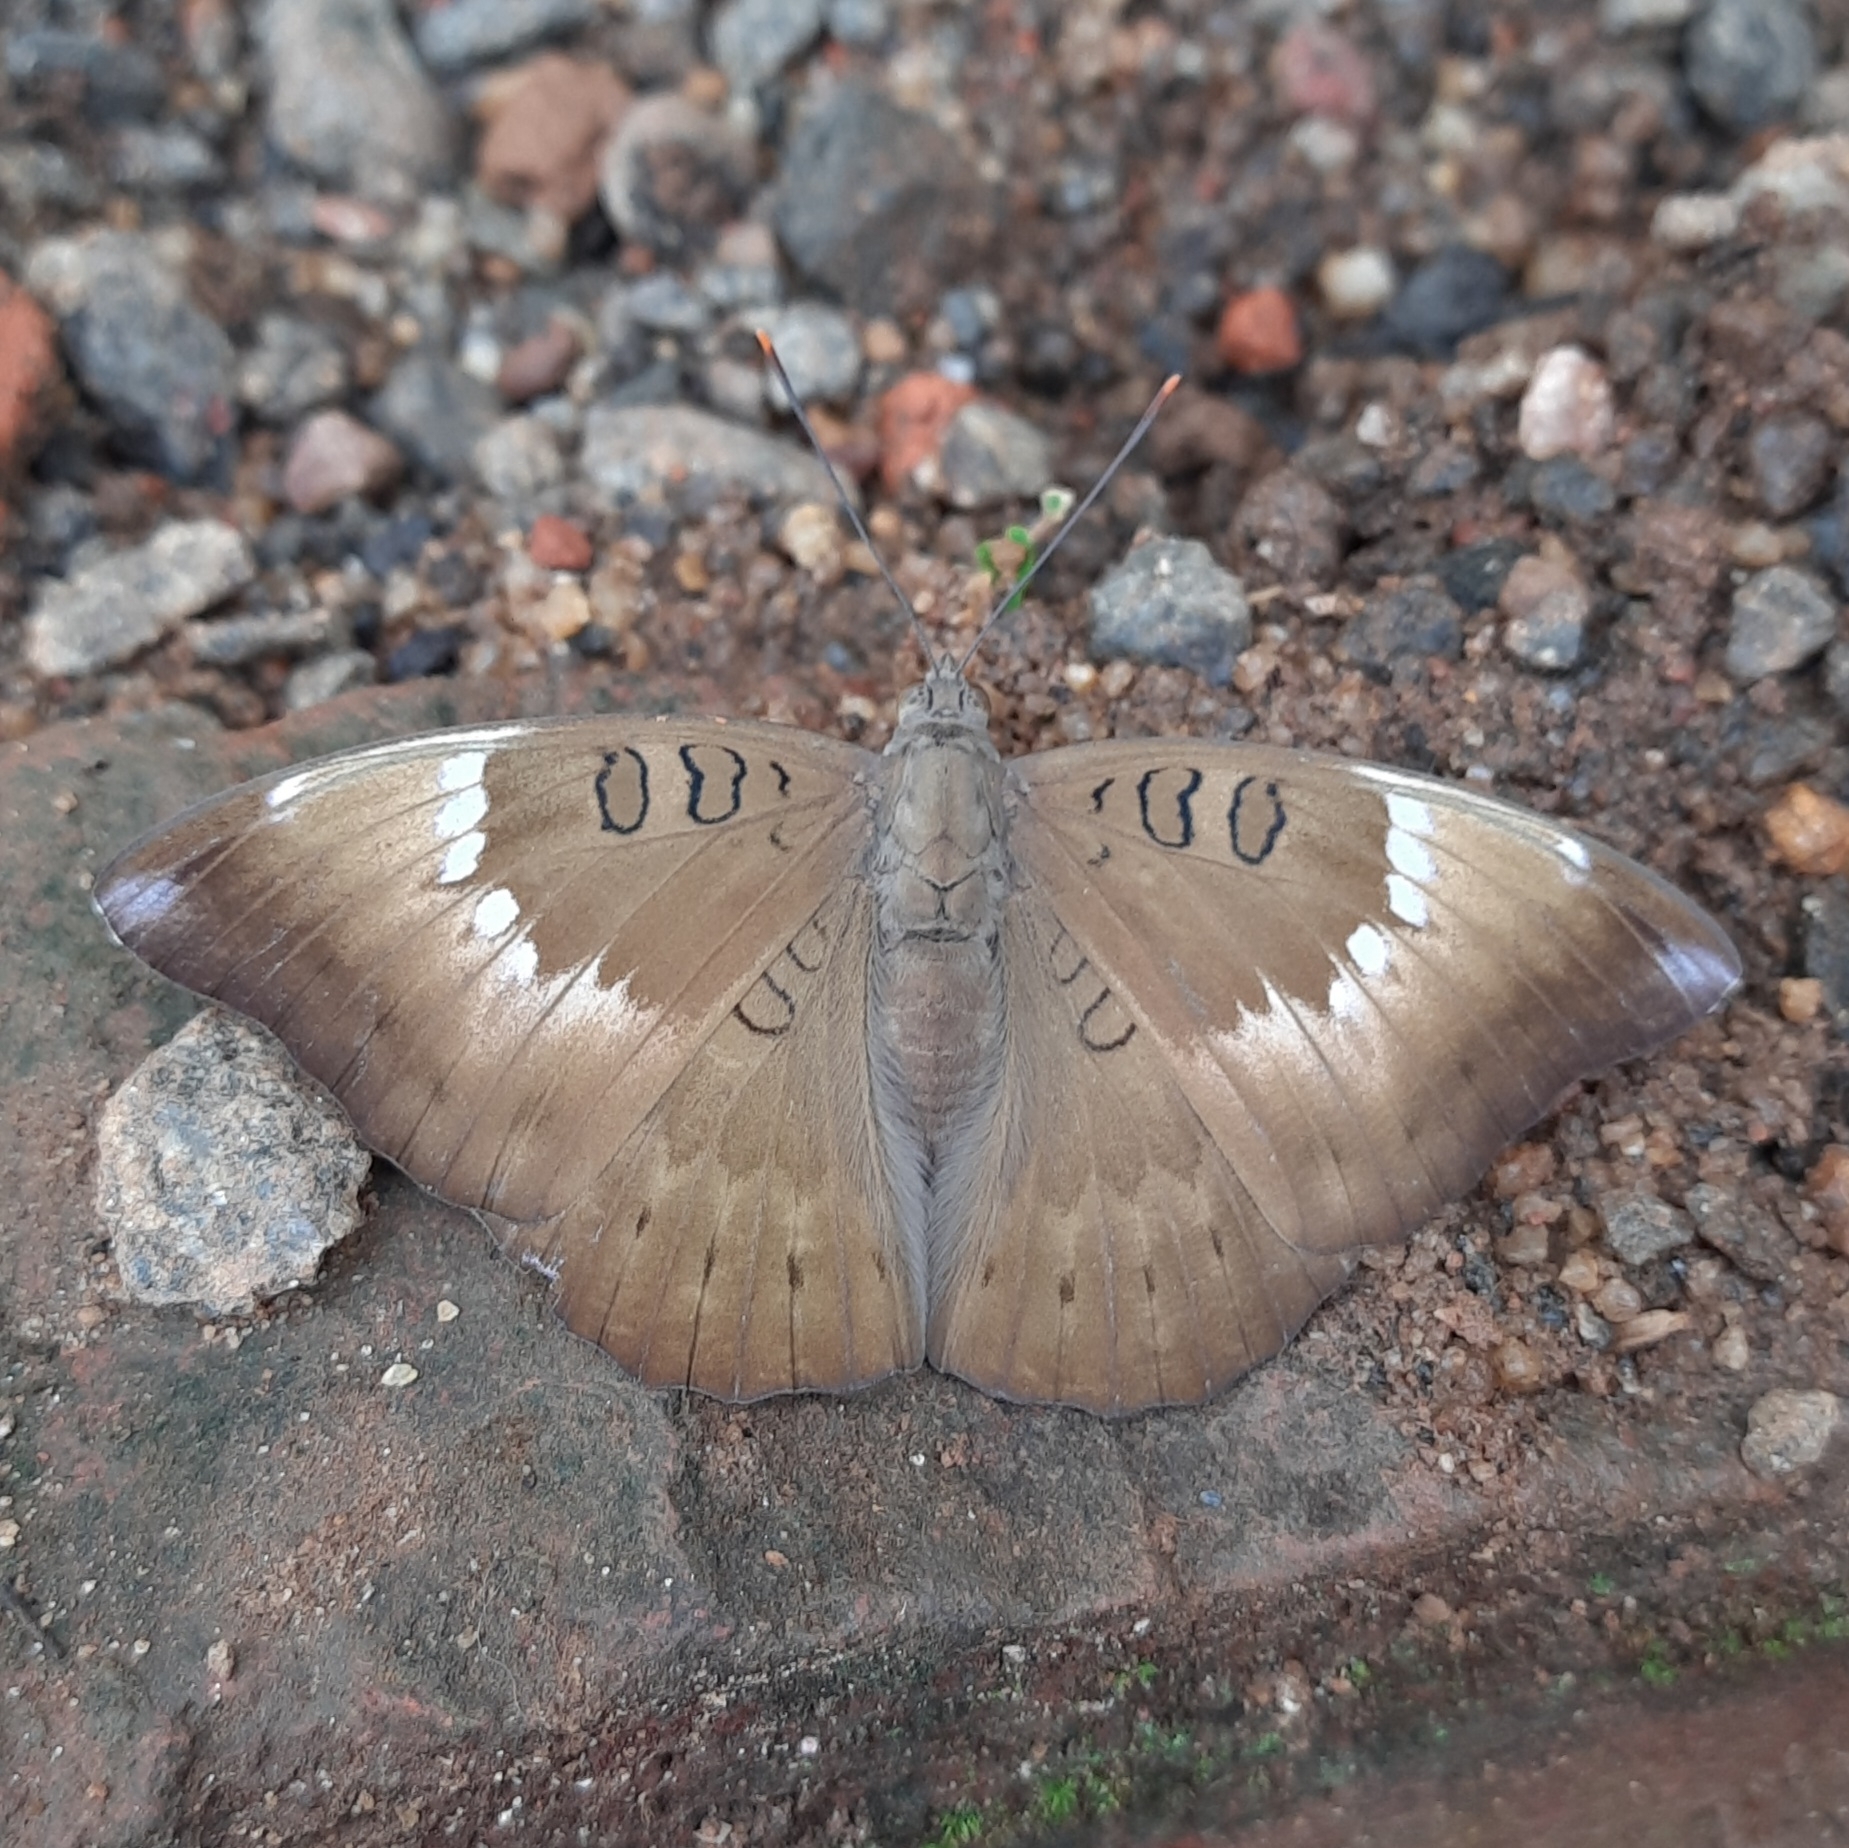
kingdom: Animalia
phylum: Arthropoda
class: Insecta
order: Lepidoptera
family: Nymphalidae
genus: Euthalia
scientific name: Euthalia aconthea
